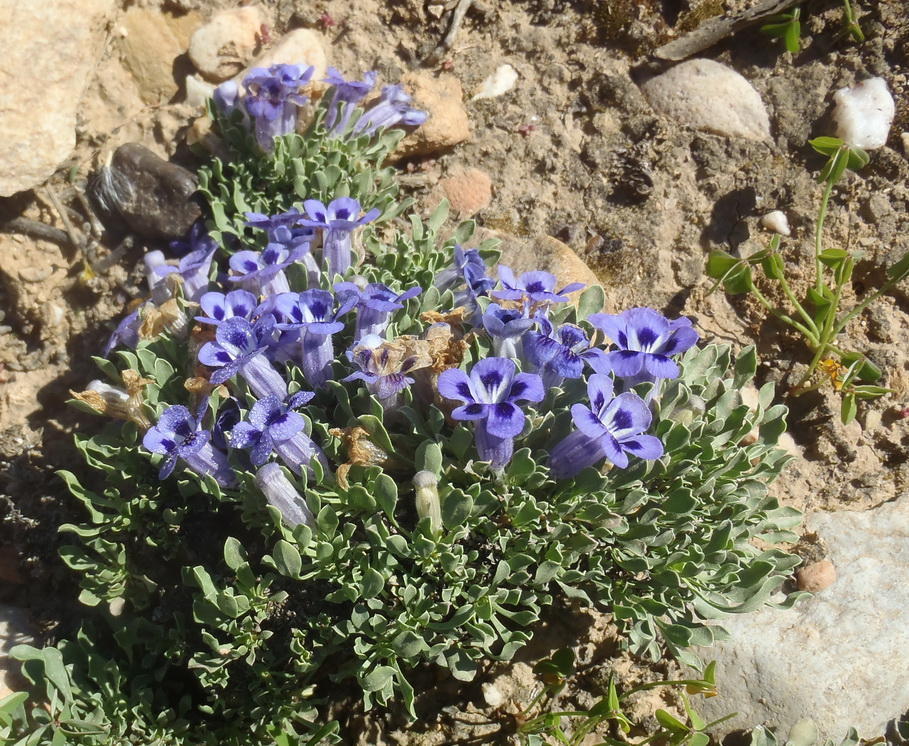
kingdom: Plantae
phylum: Tracheophyta
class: Magnoliopsida
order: Lamiales
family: Scrophulariaceae
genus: Aptosimum
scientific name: Aptosimum procumbens
